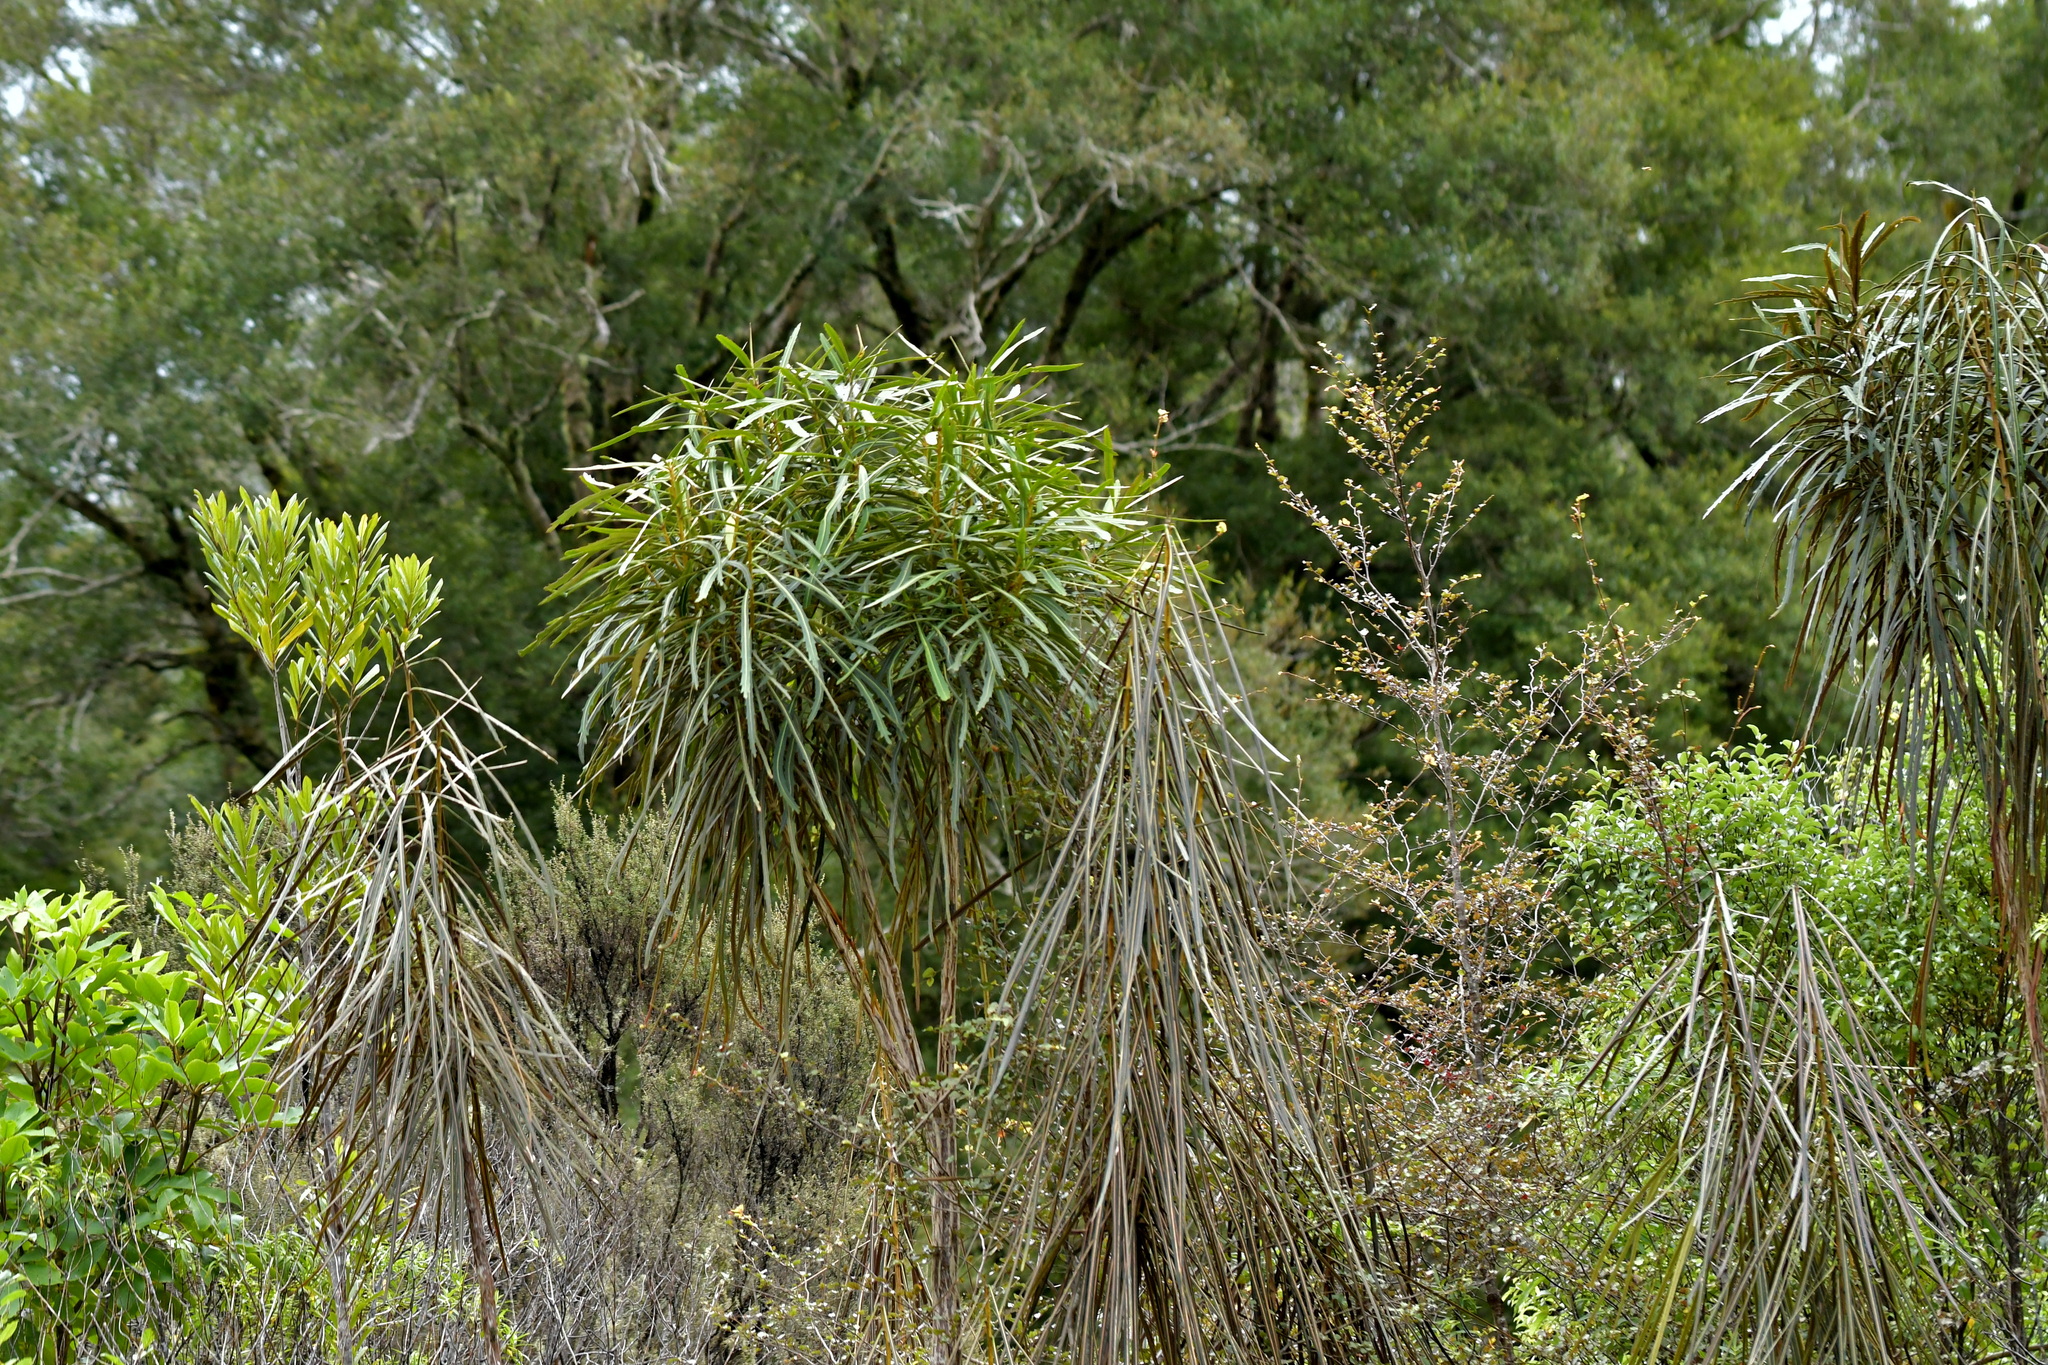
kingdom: Plantae
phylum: Tracheophyta
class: Magnoliopsida
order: Apiales
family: Araliaceae
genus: Pseudopanax
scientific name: Pseudopanax crassifolius
